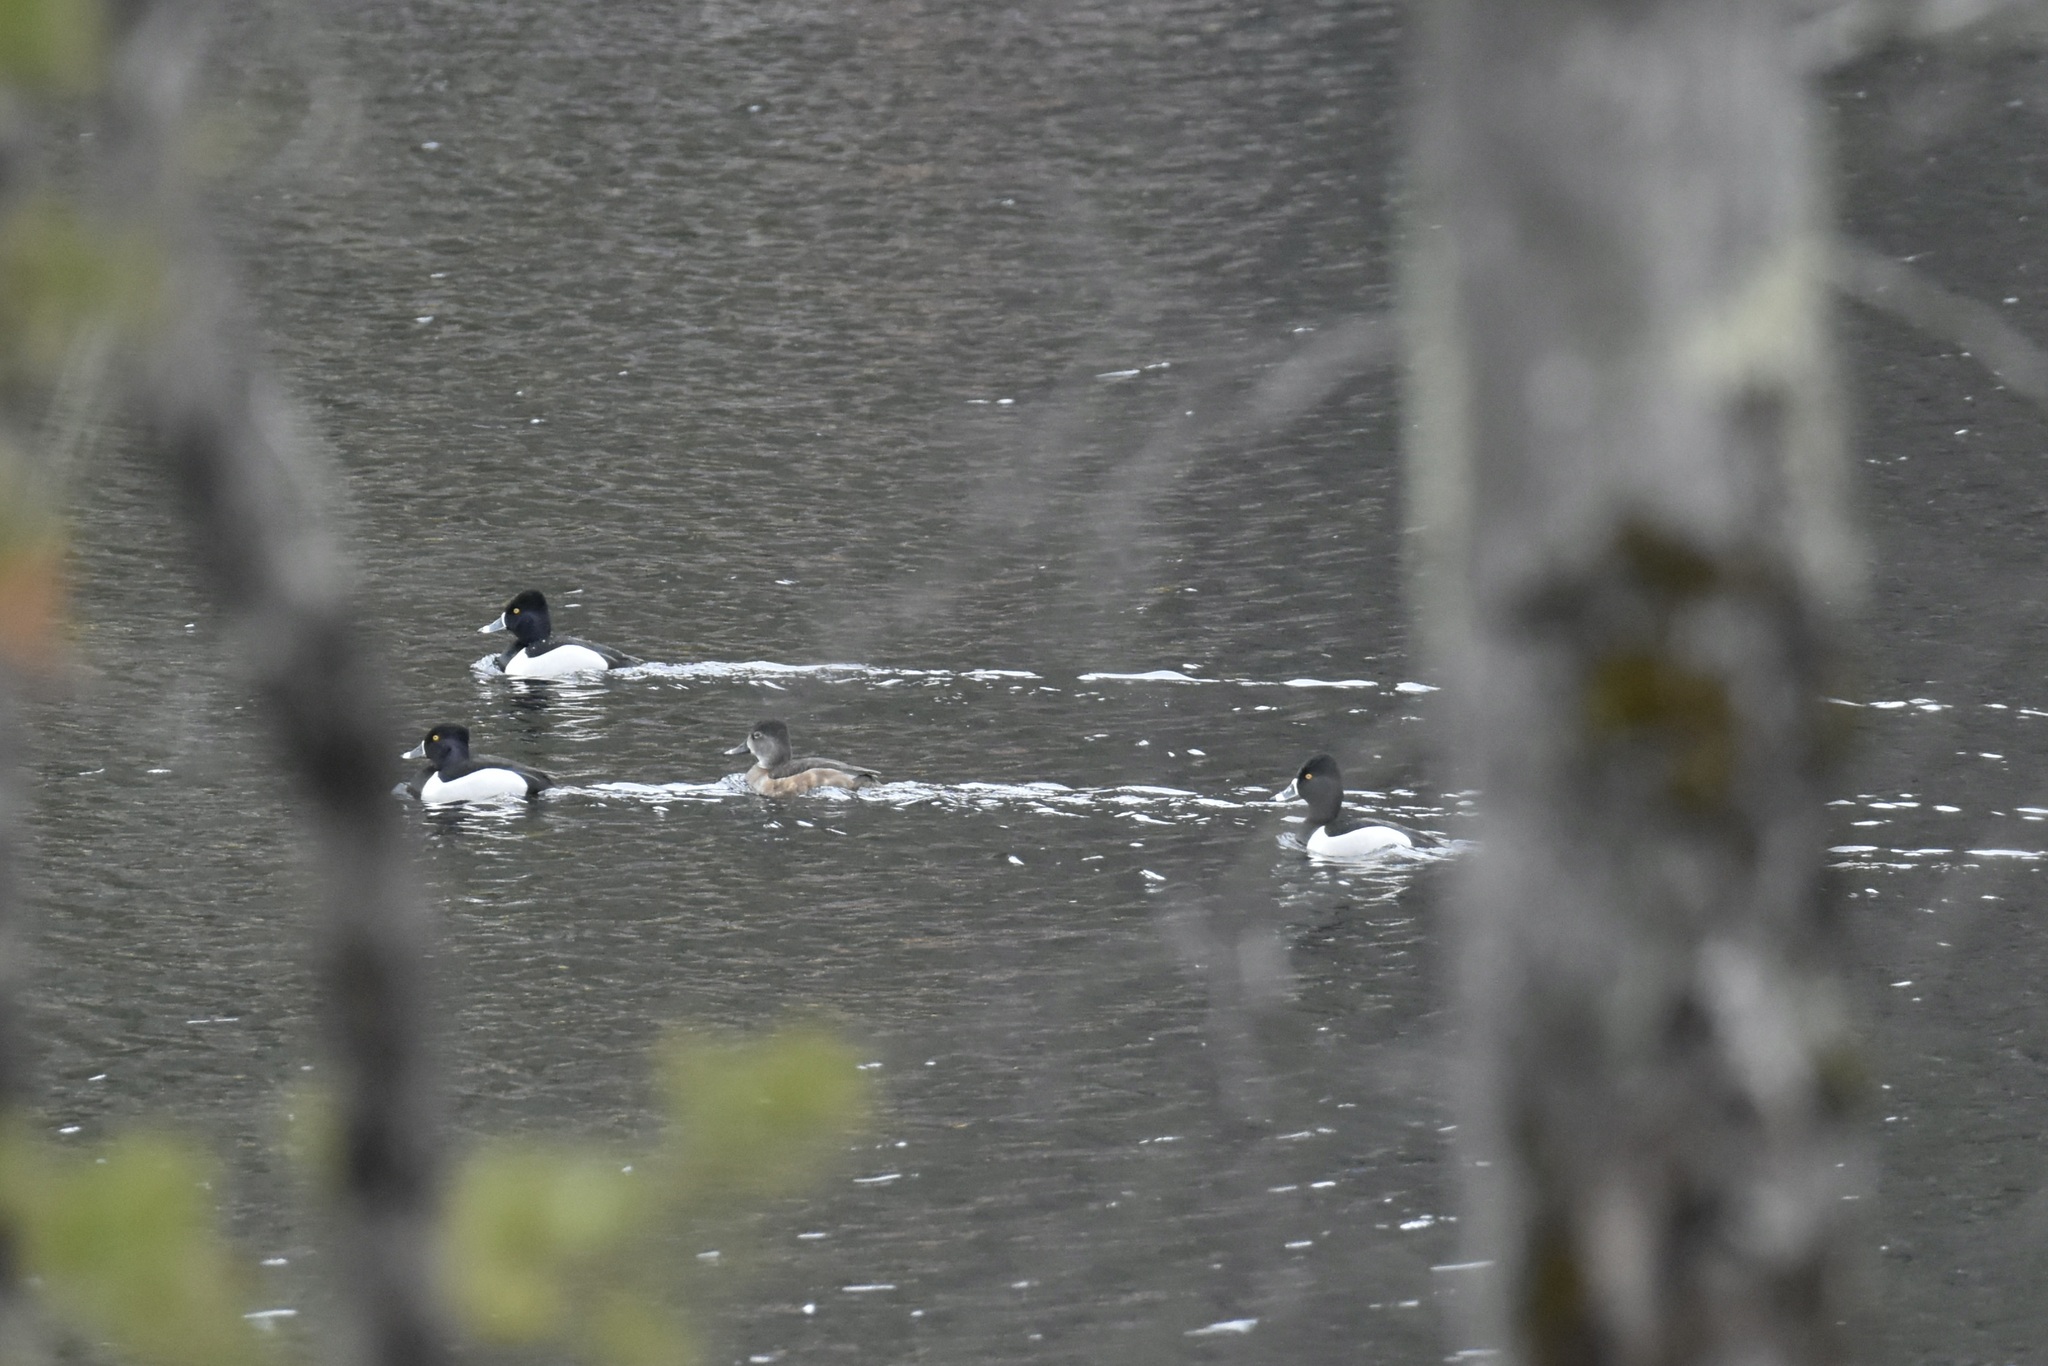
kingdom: Animalia
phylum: Chordata
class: Aves
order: Anseriformes
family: Anatidae
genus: Aythya
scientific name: Aythya collaris
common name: Ring-necked duck
